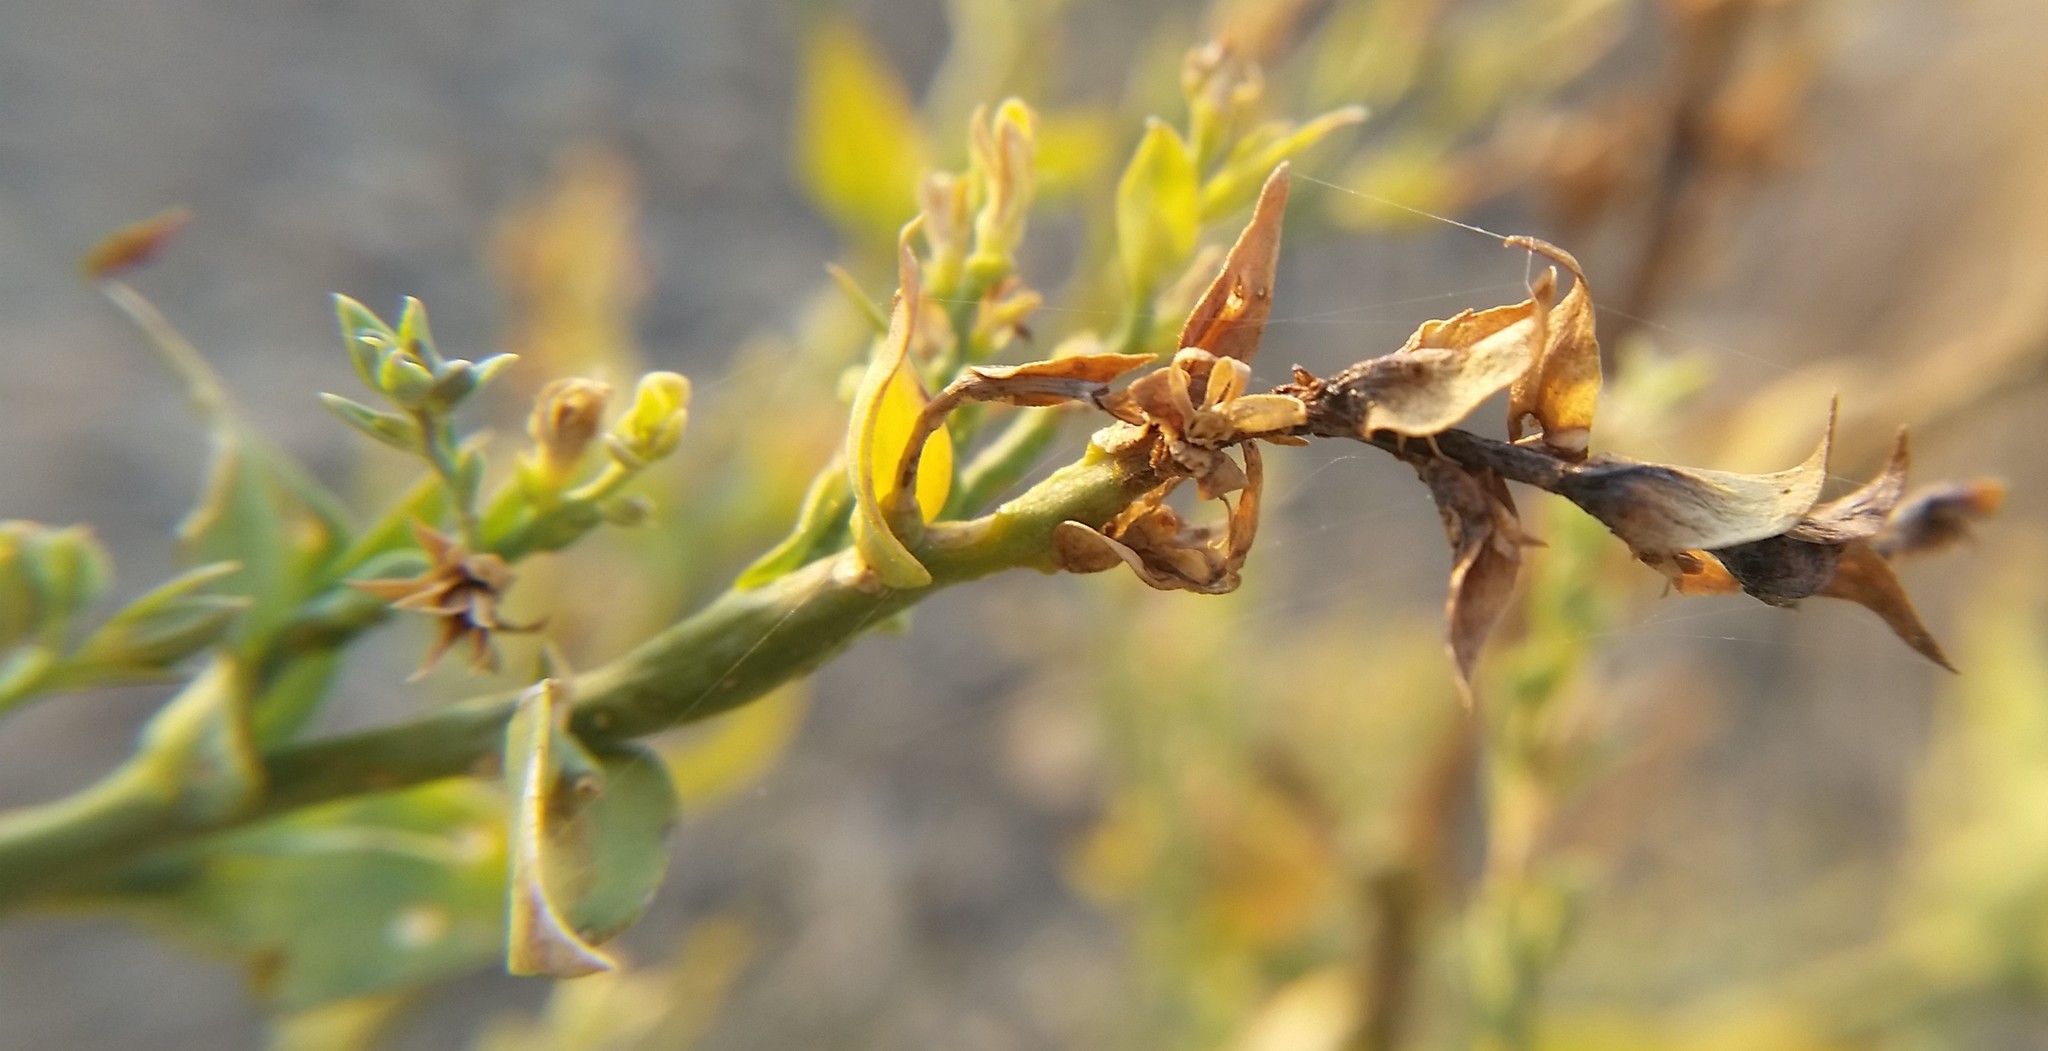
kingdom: Plantae
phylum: Tracheophyta
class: Magnoliopsida
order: Lamiales
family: Plantaginaceae
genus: Linaria
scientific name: Linaria dalmatica
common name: Dalmatian toadflax
